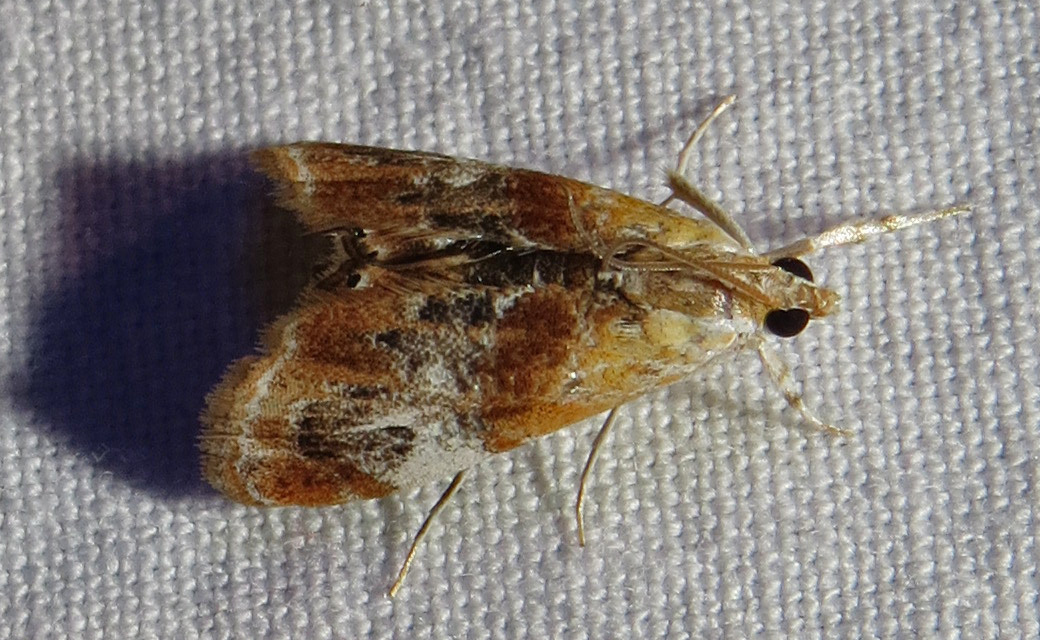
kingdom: Animalia
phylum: Arthropoda
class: Insecta
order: Lepidoptera
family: Crambidae
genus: Dicymolomia
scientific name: Dicymolomia julianalis
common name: Julia's dicymolomia moth
